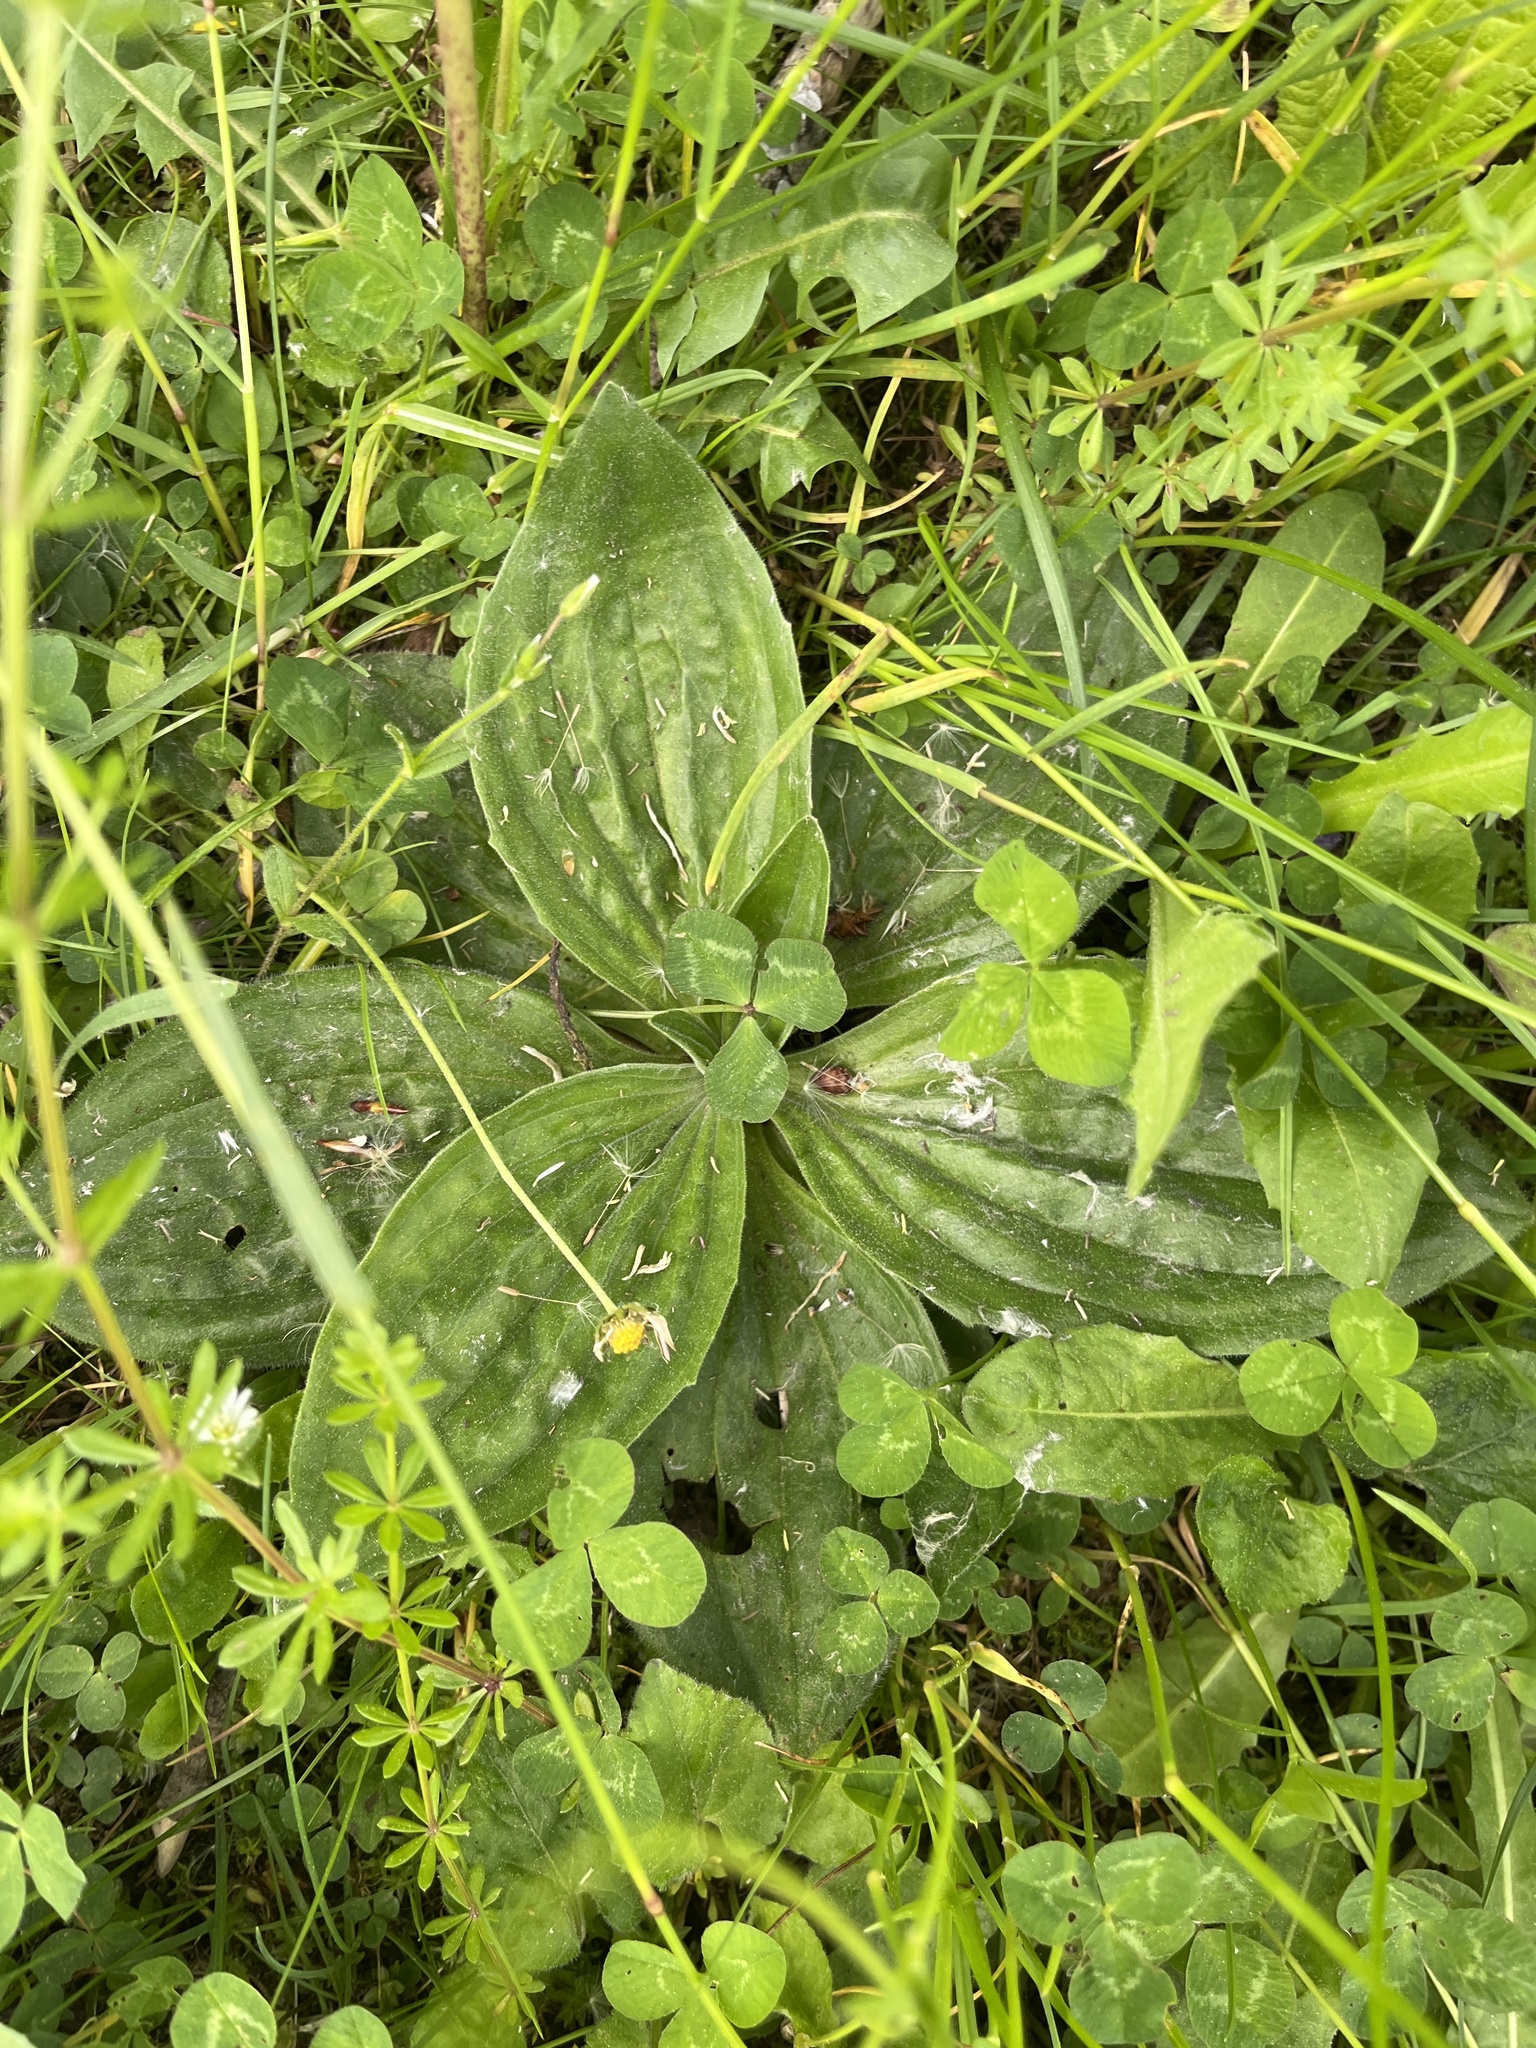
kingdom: Plantae
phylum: Tracheophyta
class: Magnoliopsida
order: Lamiales
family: Plantaginaceae
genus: Plantago
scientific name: Plantago media
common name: Hoary plantain
